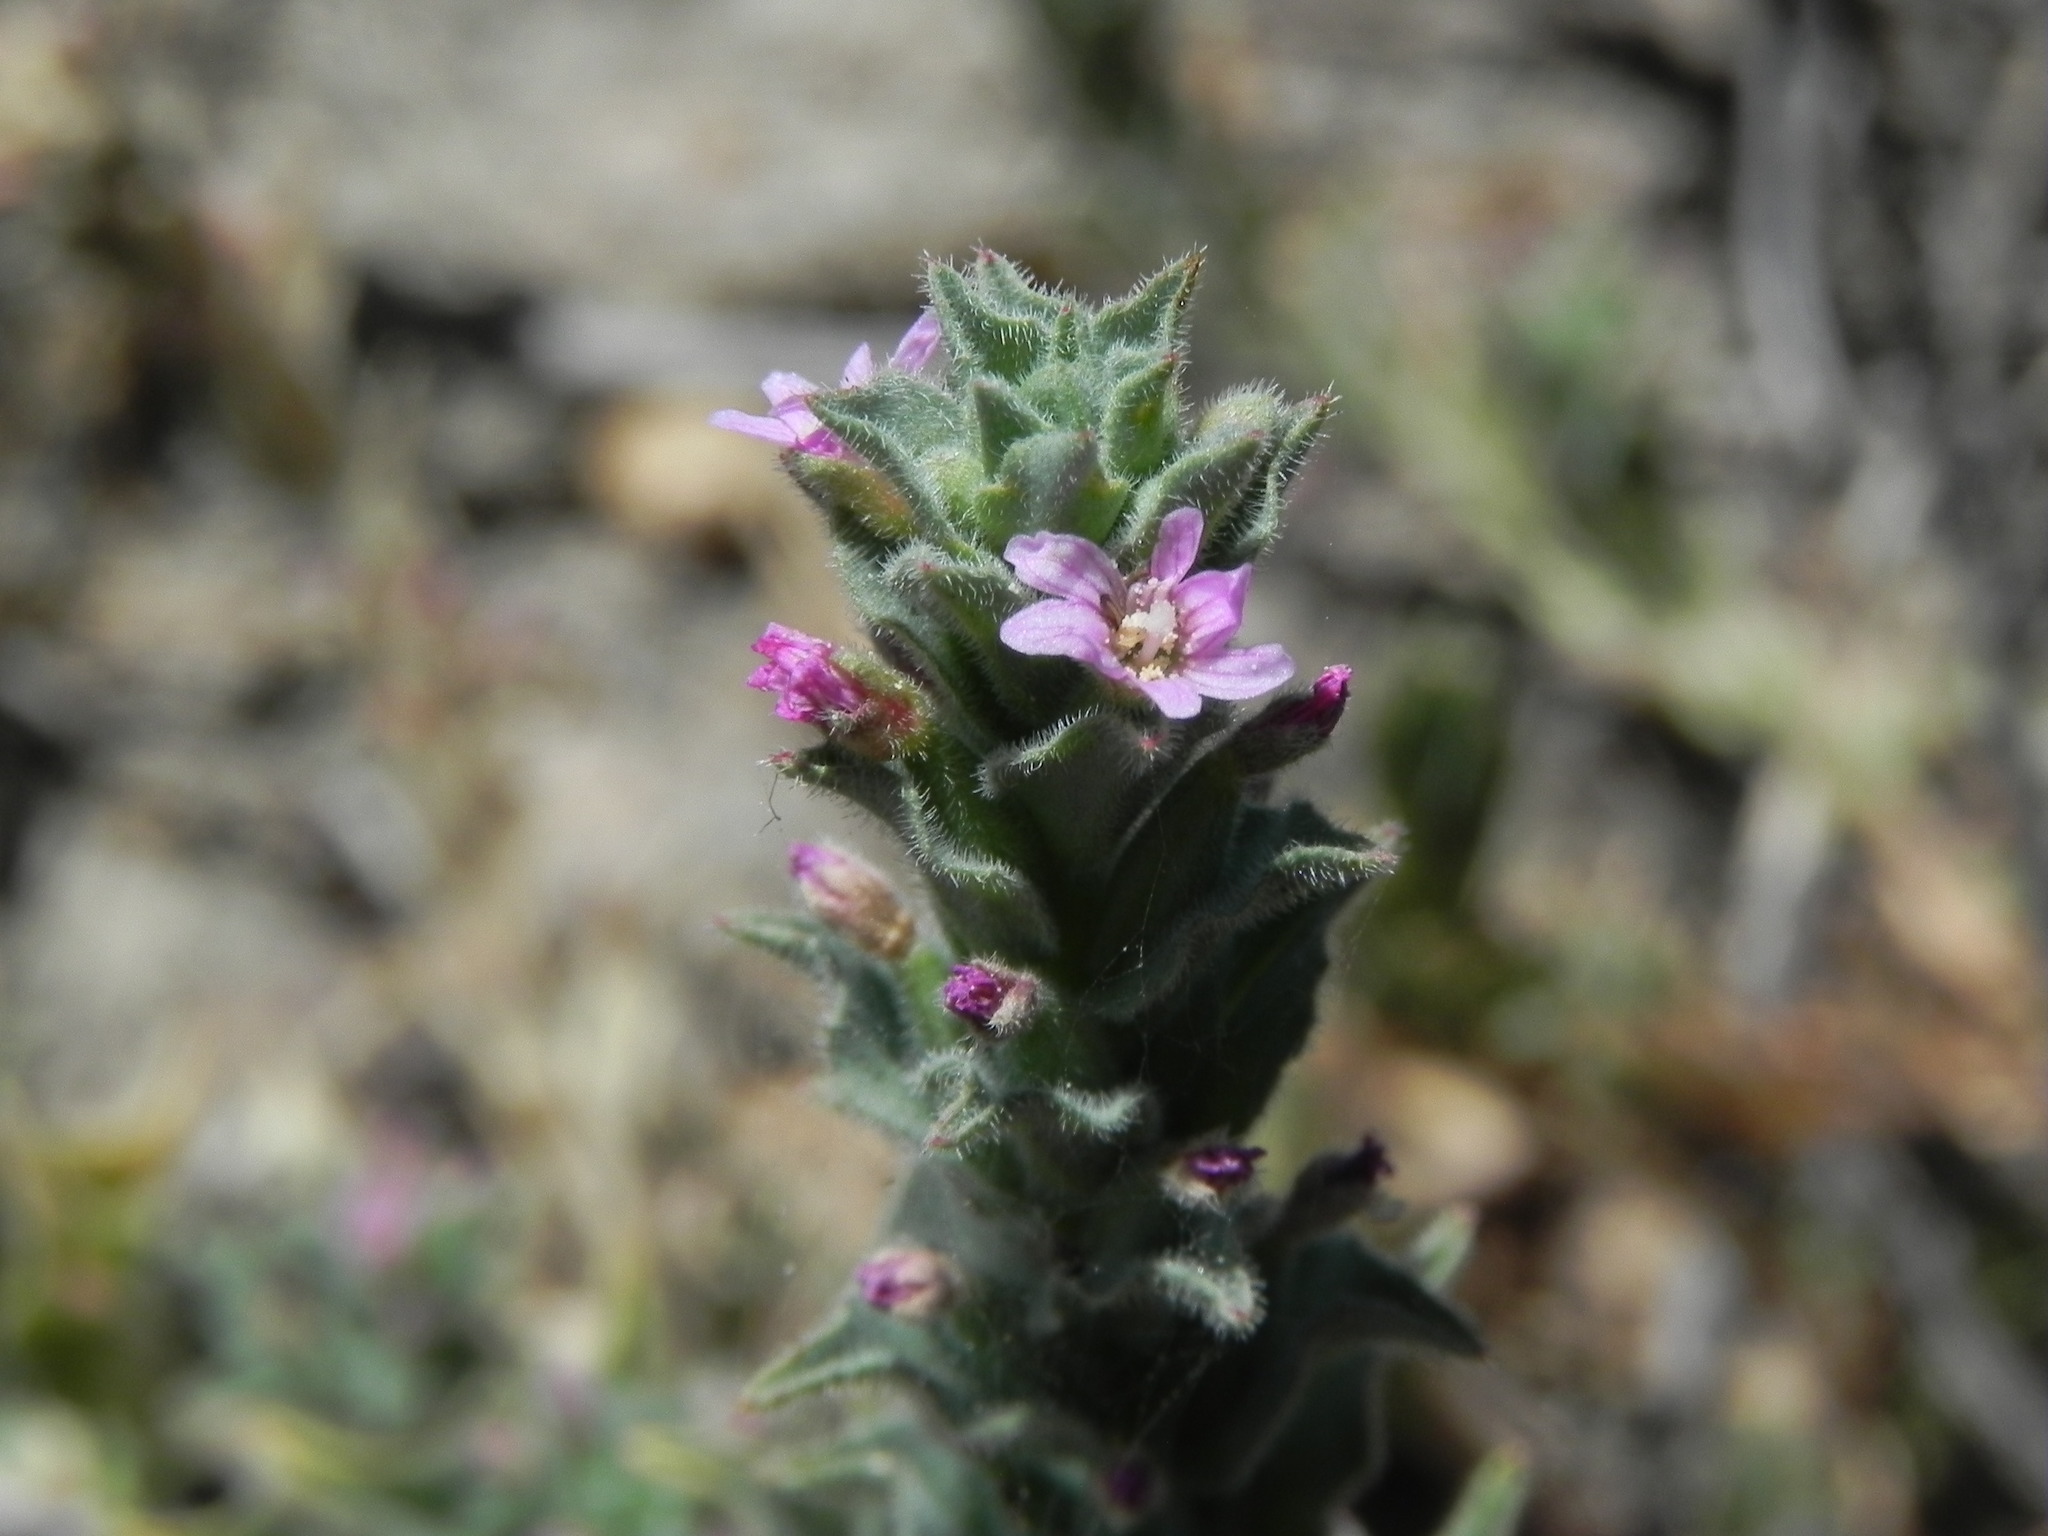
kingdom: Plantae
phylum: Tracheophyta
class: Magnoliopsida
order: Myrtales
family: Onagraceae
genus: Epilobium
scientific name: Epilobium campestre
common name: Smooth spike-primrose
